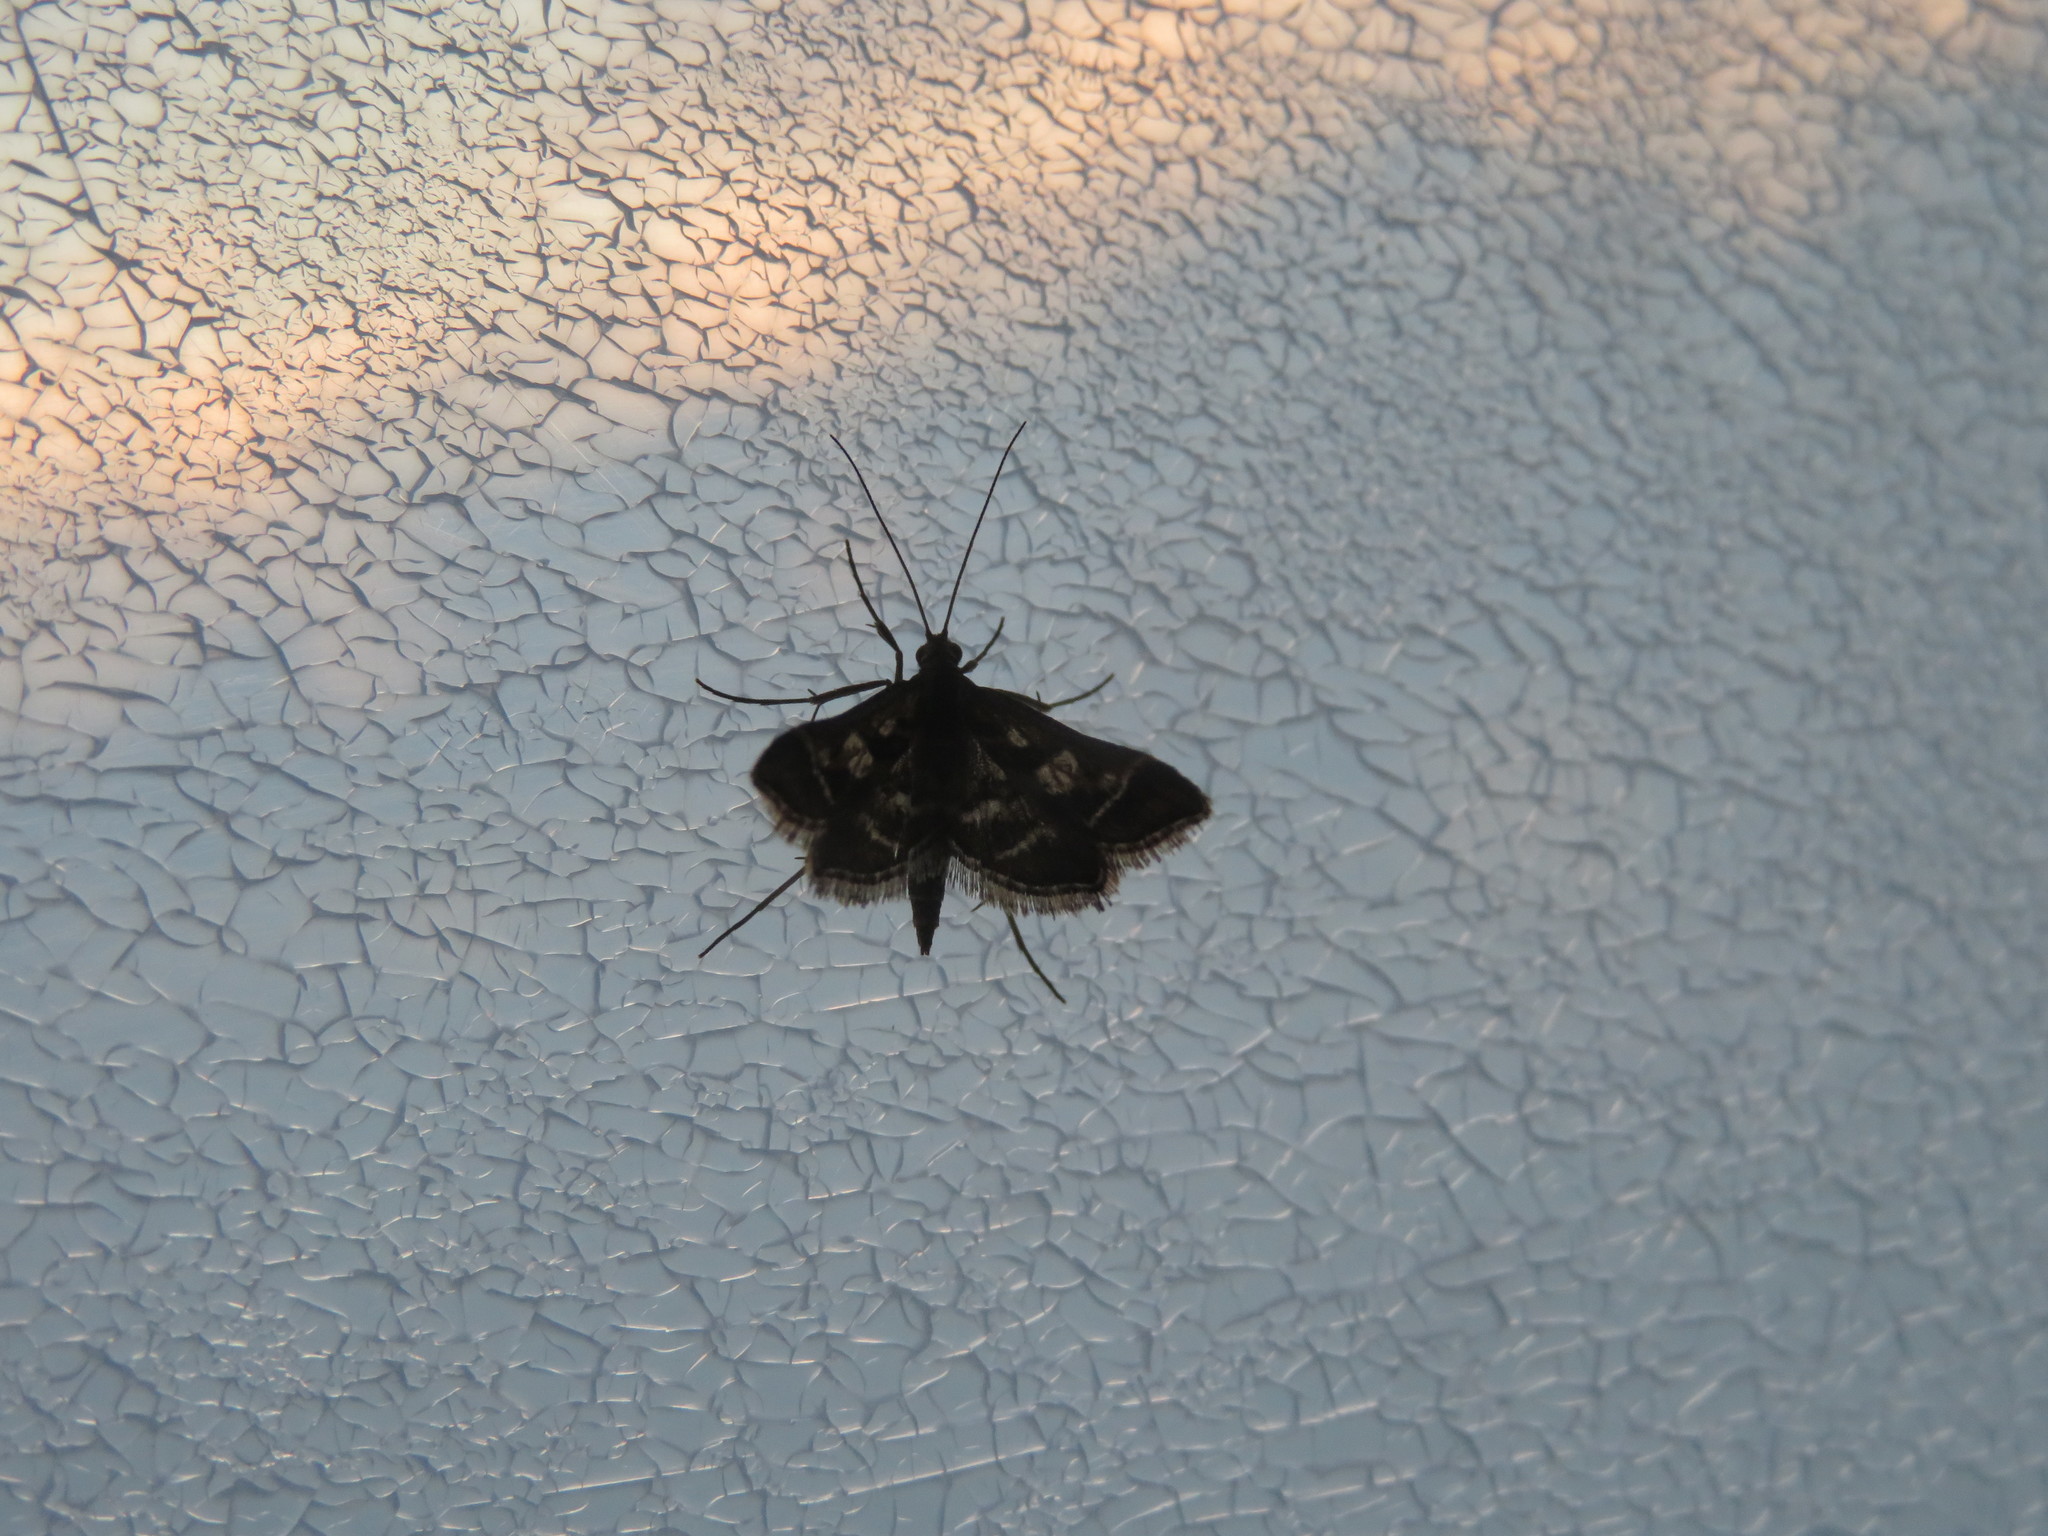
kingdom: Animalia
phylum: Arthropoda
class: Insecta
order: Lepidoptera
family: Crambidae
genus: Diasemia
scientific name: Diasemia grammalis
